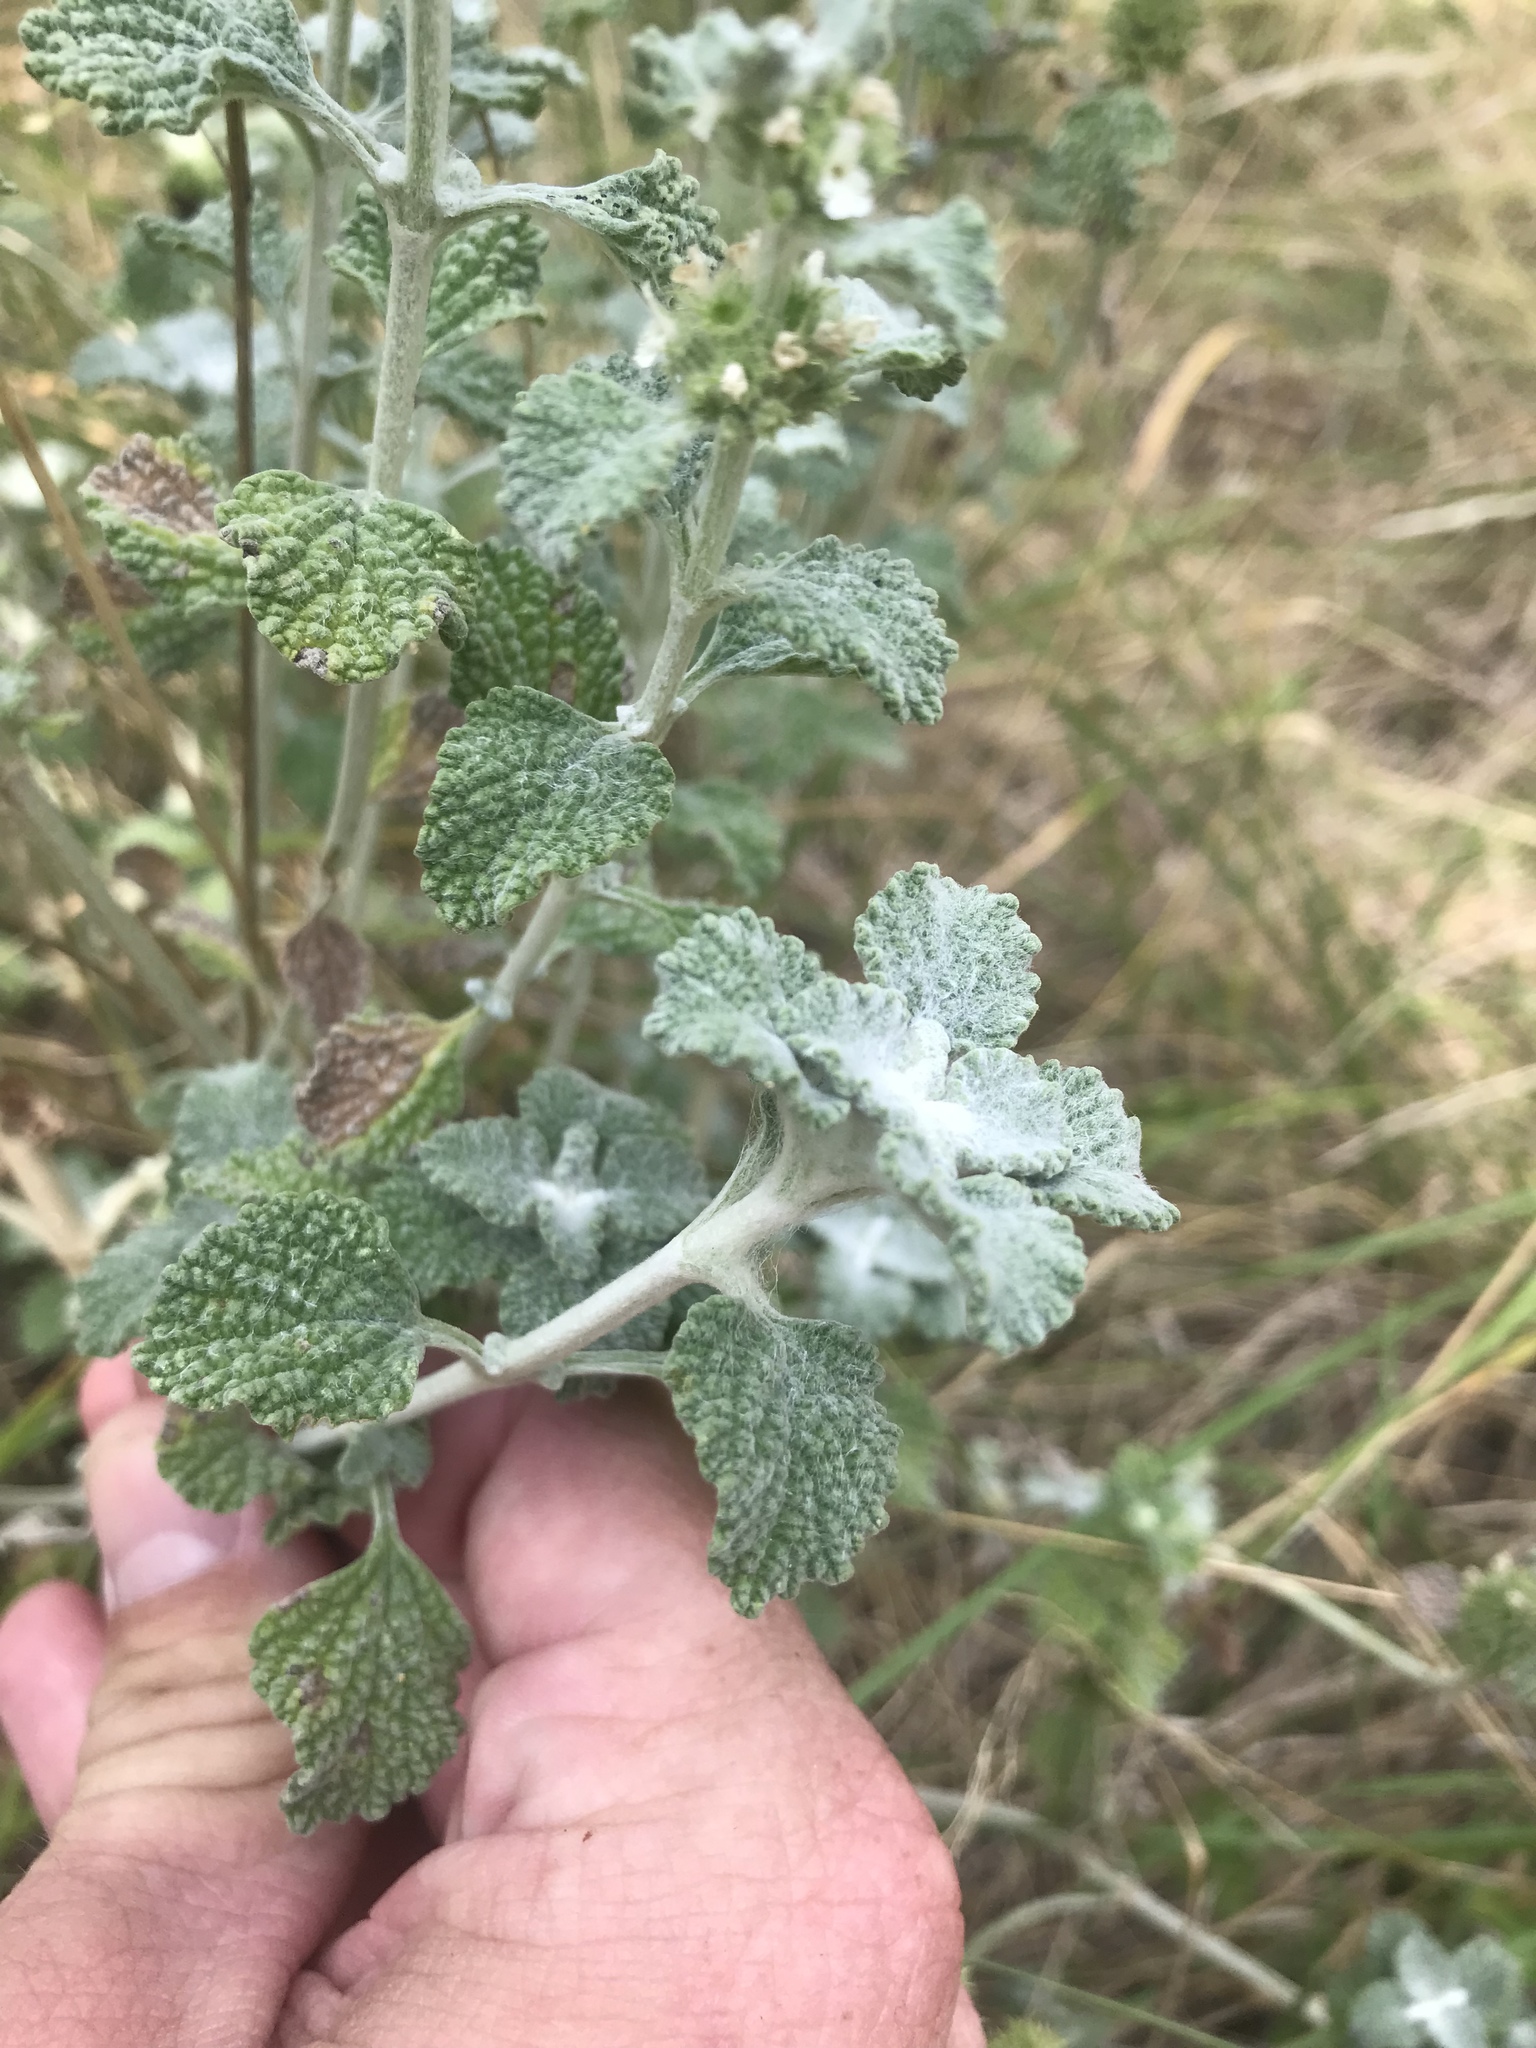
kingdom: Plantae
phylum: Tracheophyta
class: Magnoliopsida
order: Lamiales
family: Lamiaceae
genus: Marrubium
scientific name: Marrubium vulgare
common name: Horehound
